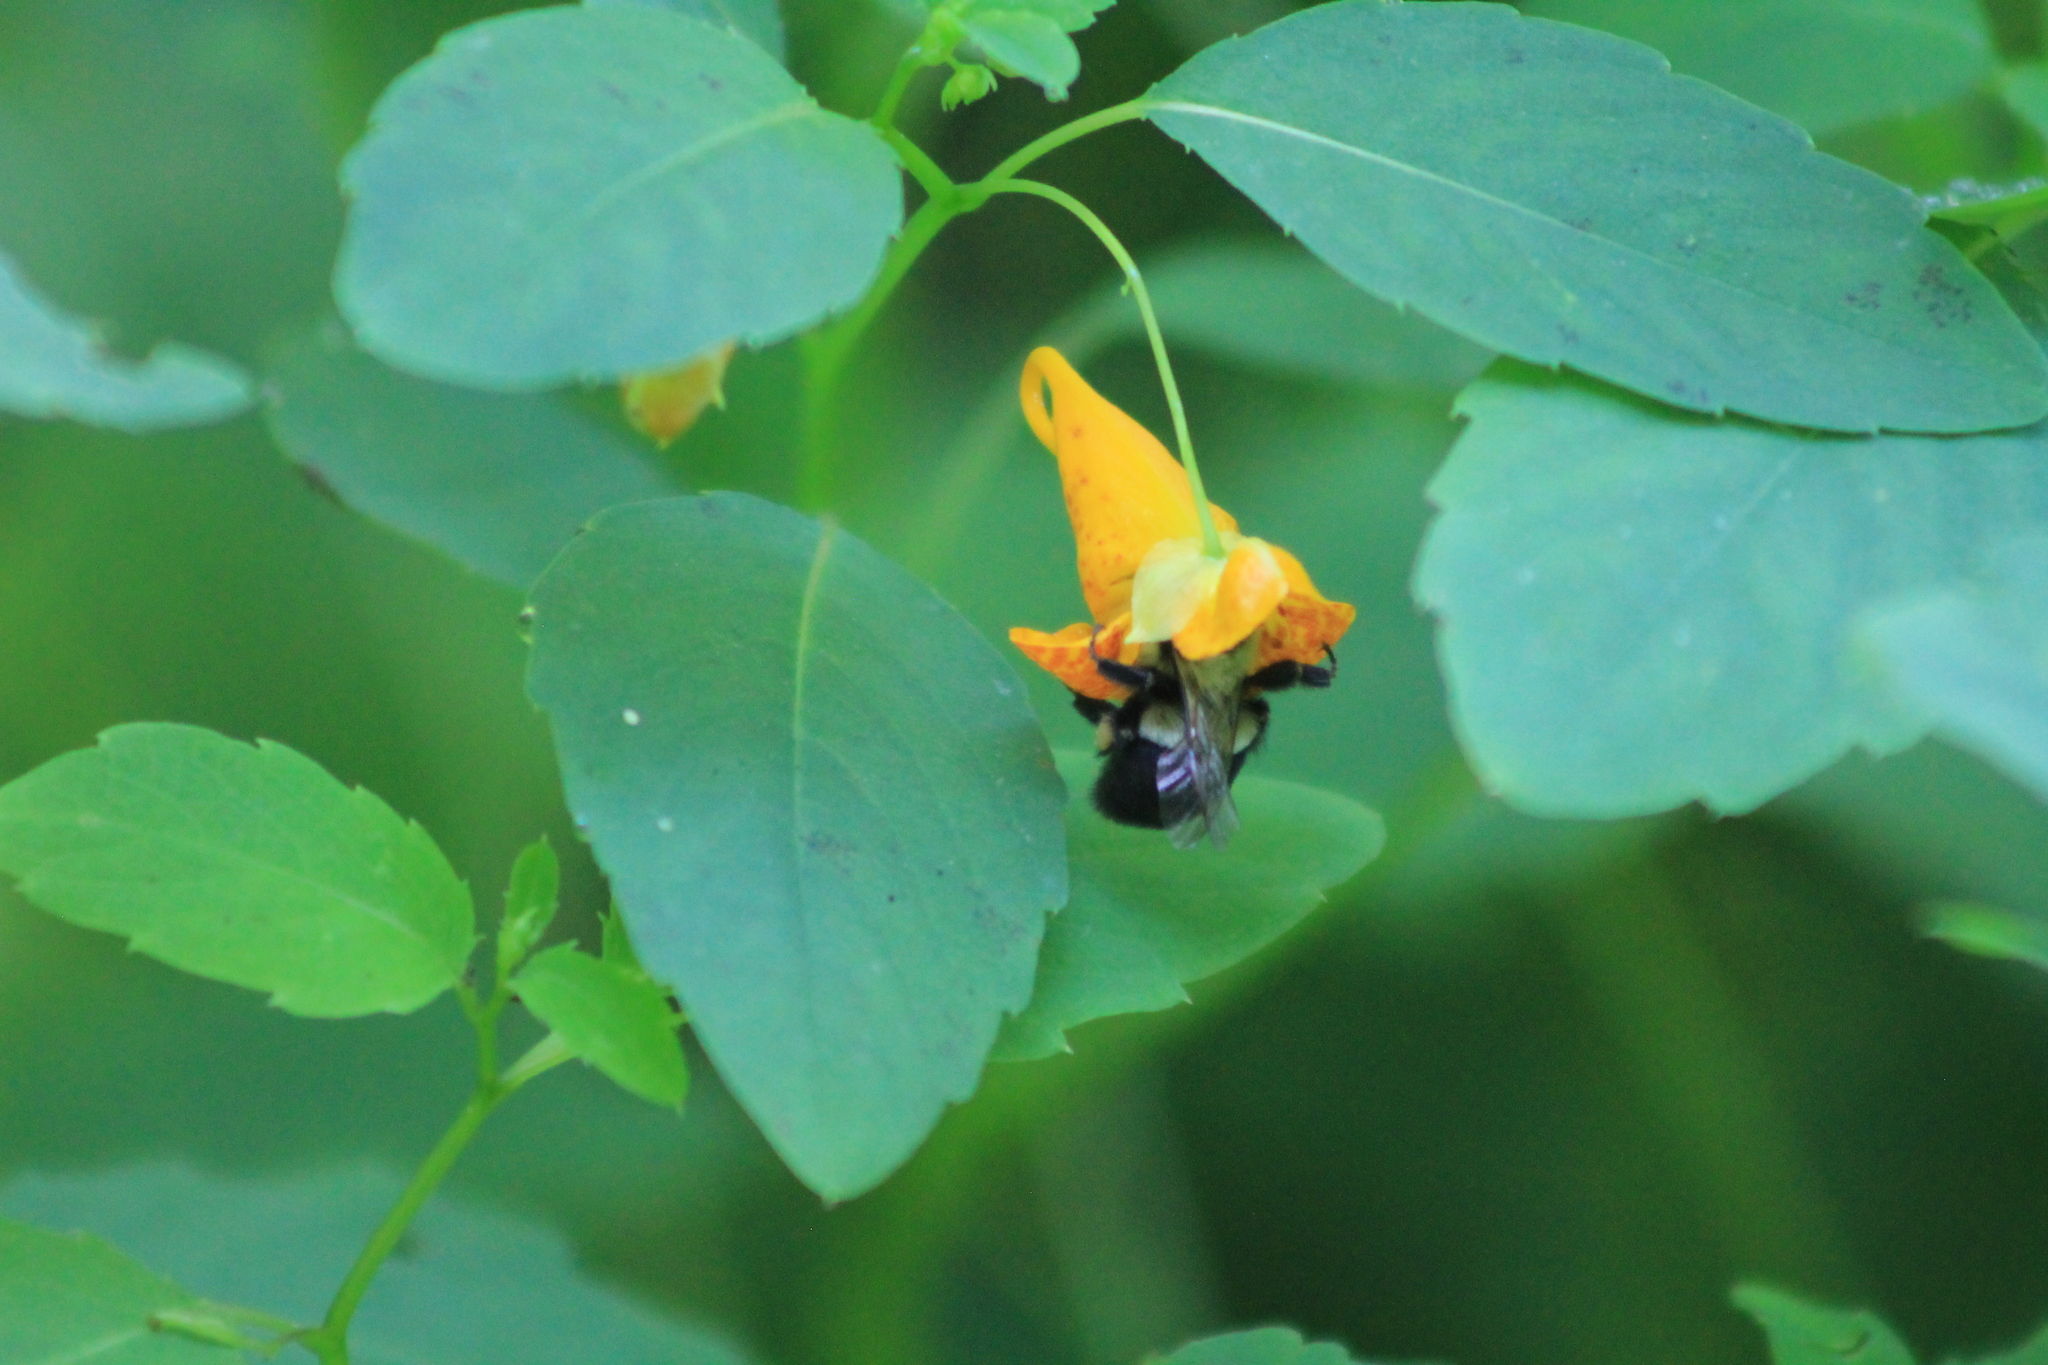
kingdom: Animalia
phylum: Arthropoda
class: Insecta
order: Hymenoptera
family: Apidae
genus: Bombus
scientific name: Bombus impatiens
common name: Common eastern bumble bee
